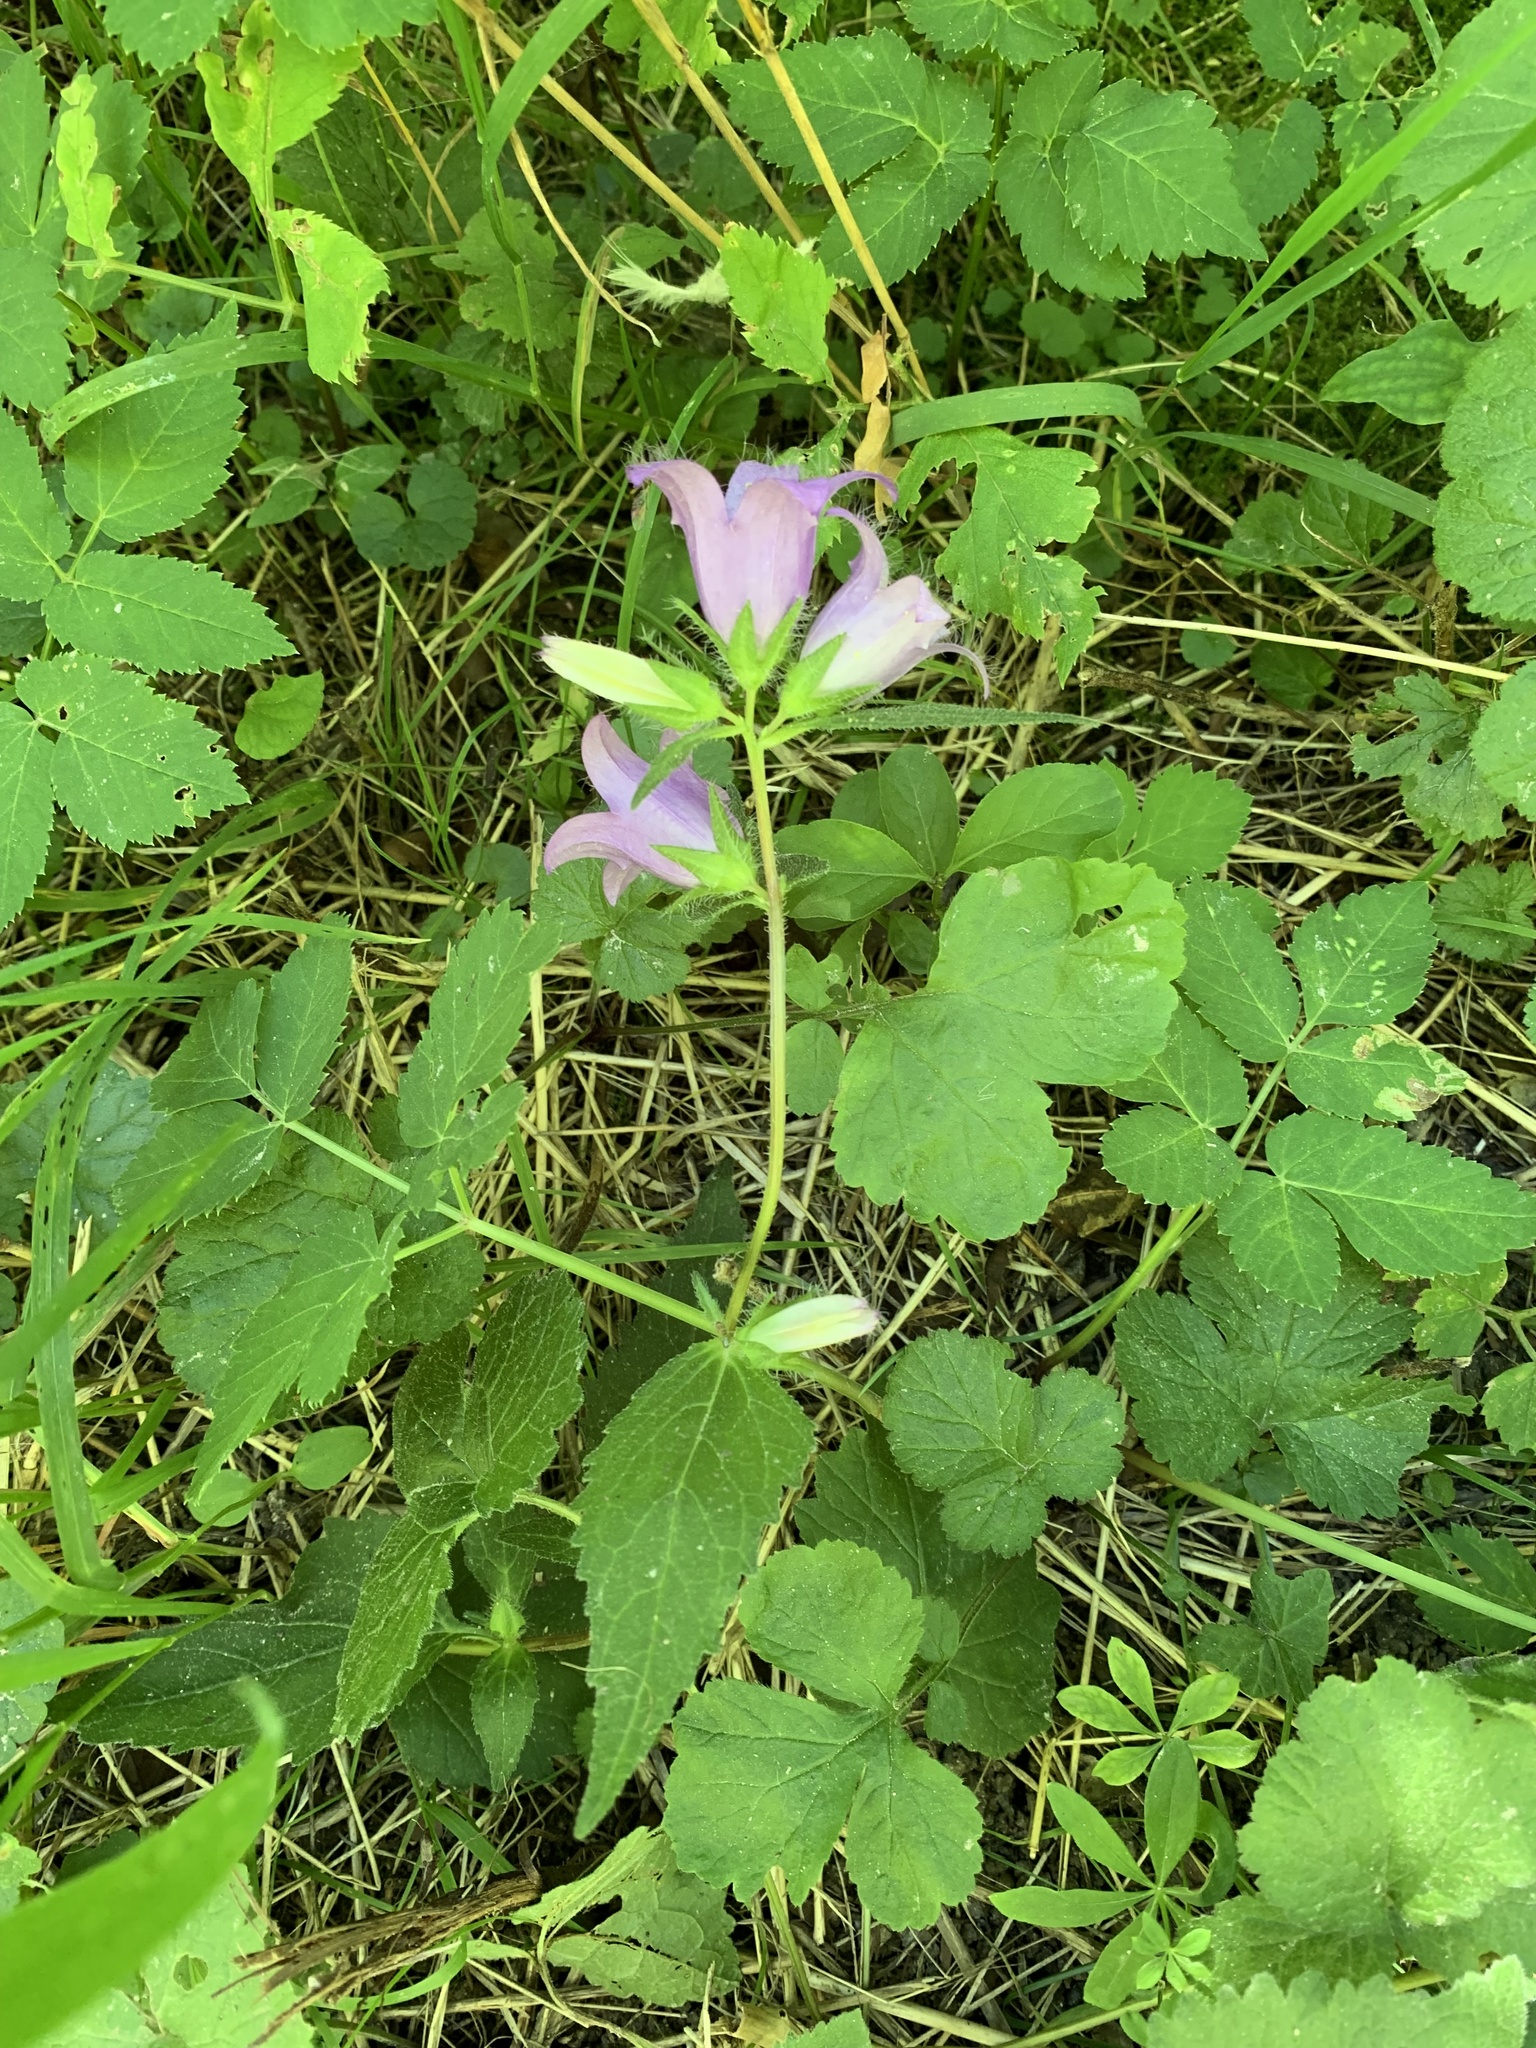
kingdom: Plantae
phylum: Tracheophyta
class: Magnoliopsida
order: Asterales
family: Campanulaceae
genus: Campanula
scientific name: Campanula trachelium
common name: Nettle-leaved bellflower
